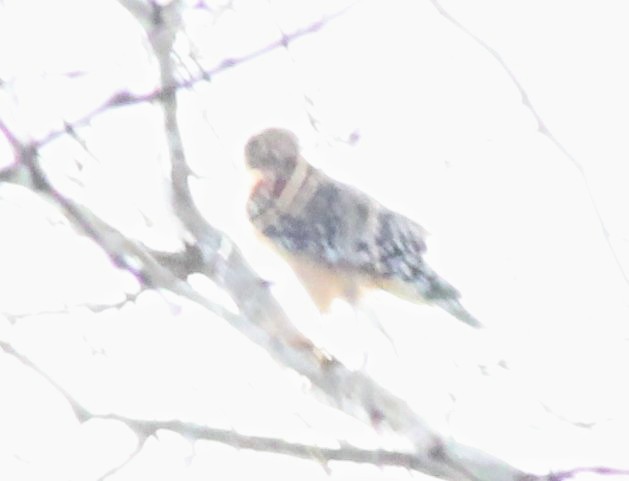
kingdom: Animalia
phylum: Chordata
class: Aves
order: Accipitriformes
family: Accipitridae
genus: Buteo
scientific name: Buteo lineatus
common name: Red-shouldered hawk
